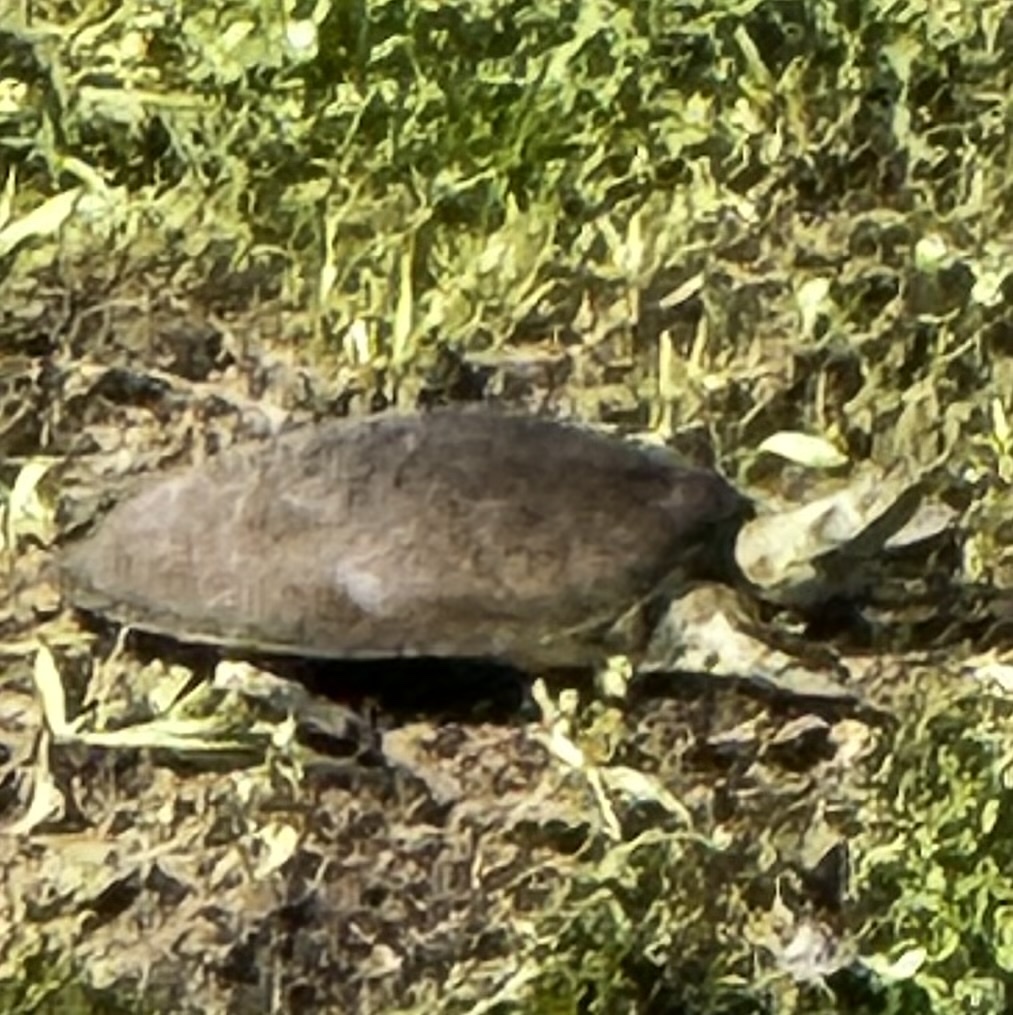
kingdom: Animalia
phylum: Chordata
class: Testudines
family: Trionychidae
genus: Apalone
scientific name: Apalone spinifera
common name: Spiny softshell turtle
